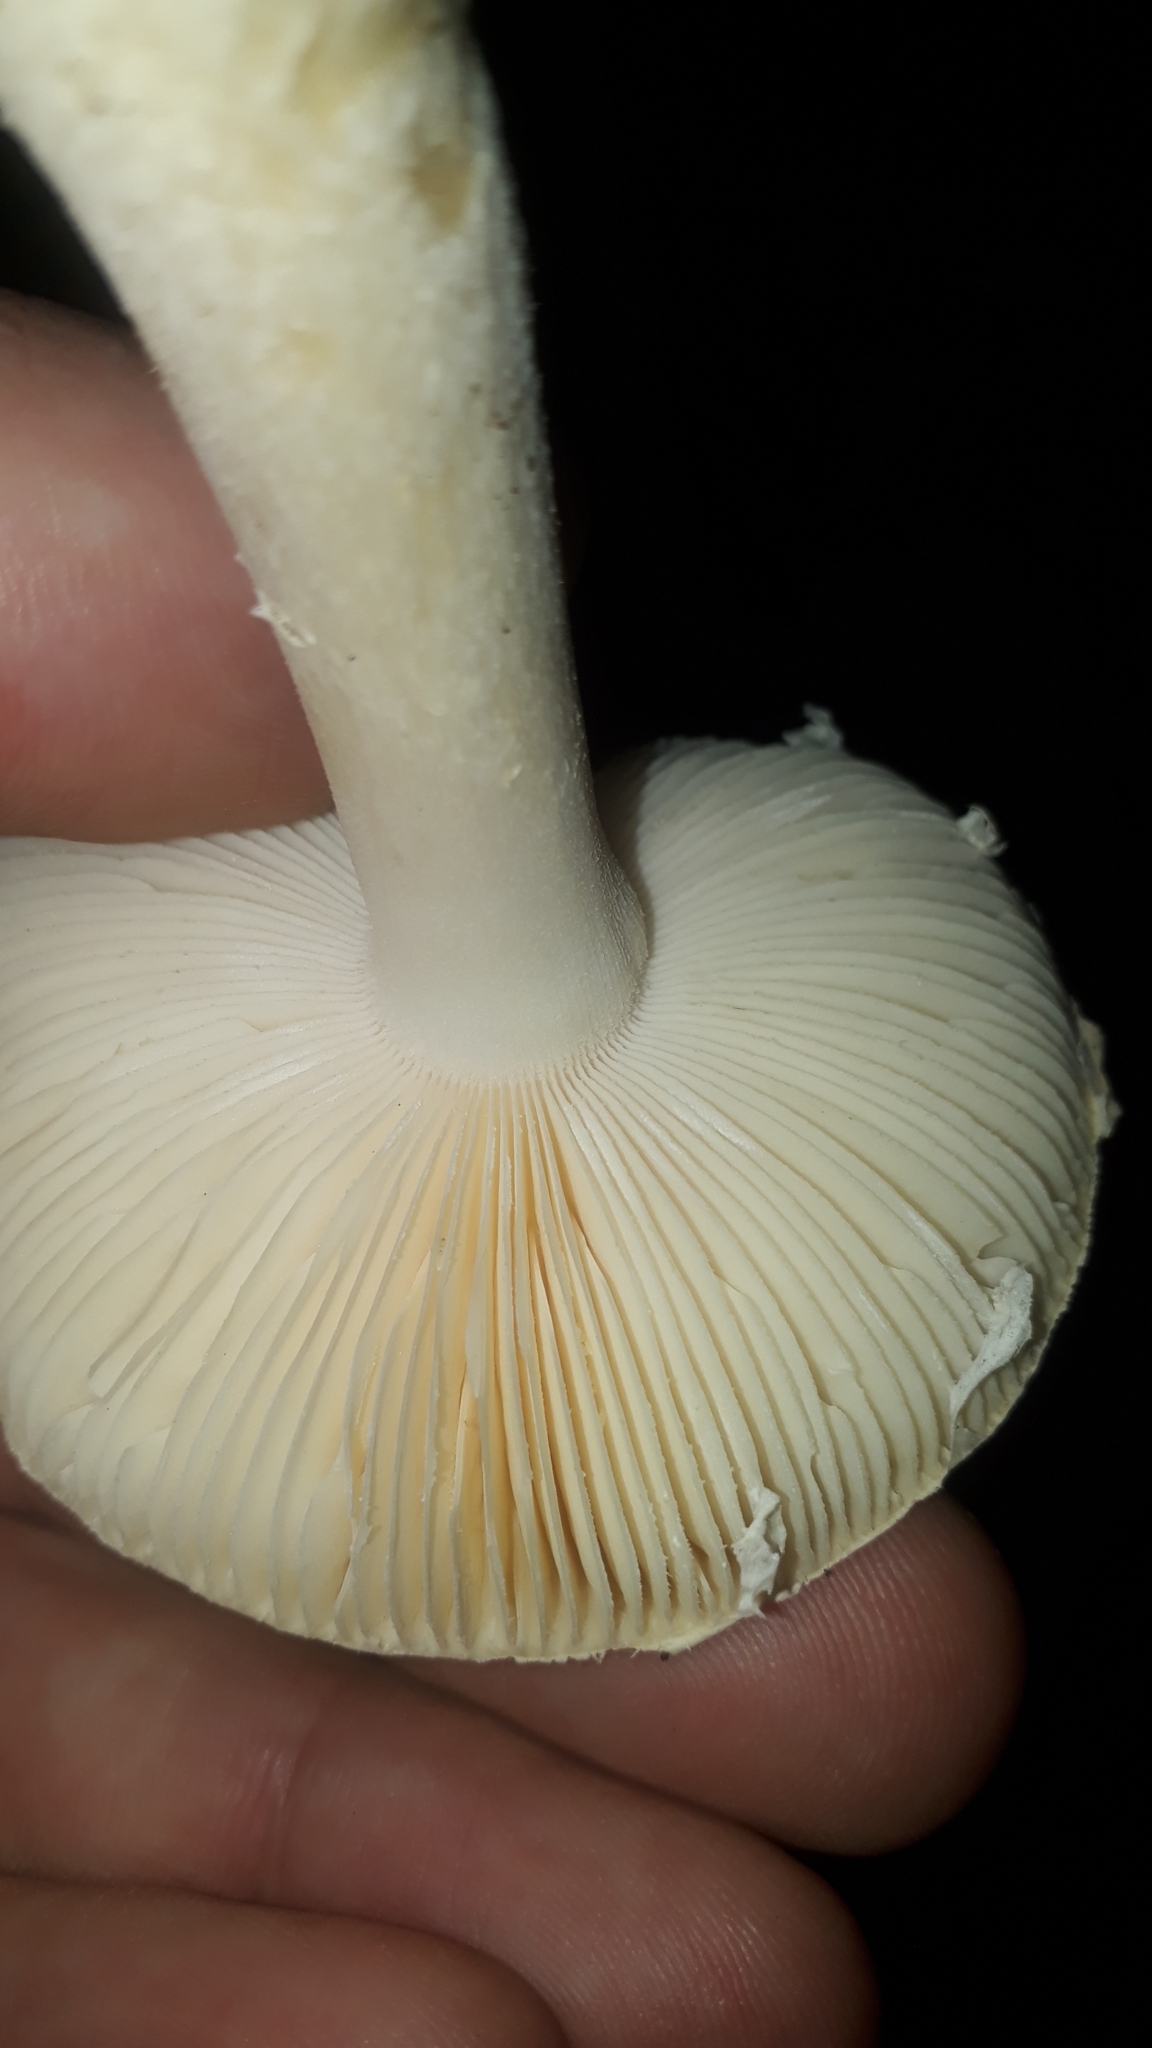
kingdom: Fungi
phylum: Basidiomycota
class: Agaricomycetes
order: Agaricales
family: Amanitaceae
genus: Amanita
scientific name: Amanita gemmata
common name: Jewelled amanita
